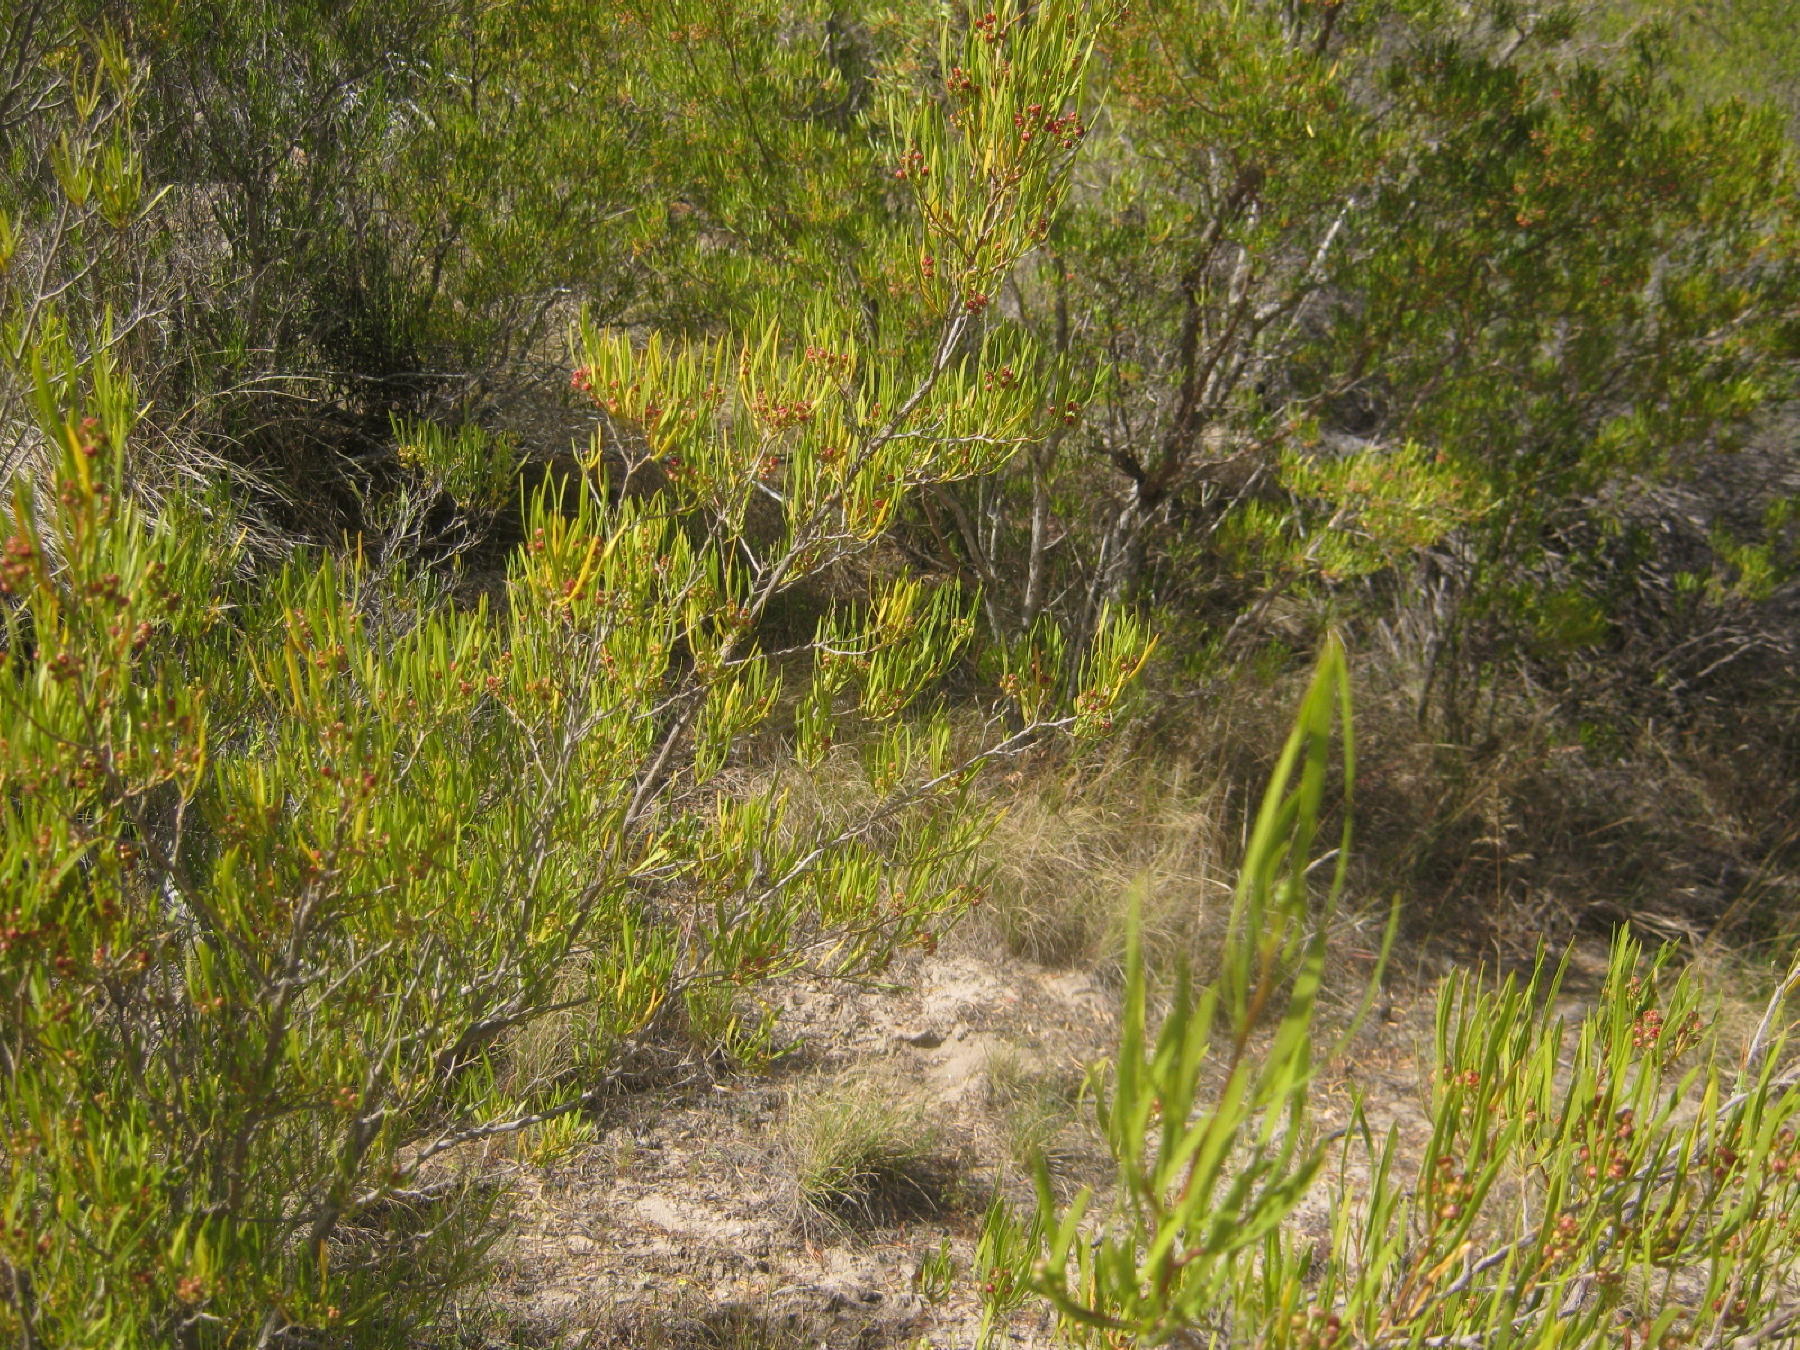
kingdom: Plantae
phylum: Tracheophyta
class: Magnoliopsida
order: Sapindales
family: Sapindaceae
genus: Dodonaea
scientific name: Dodonaea viscosa
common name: Hopbush
